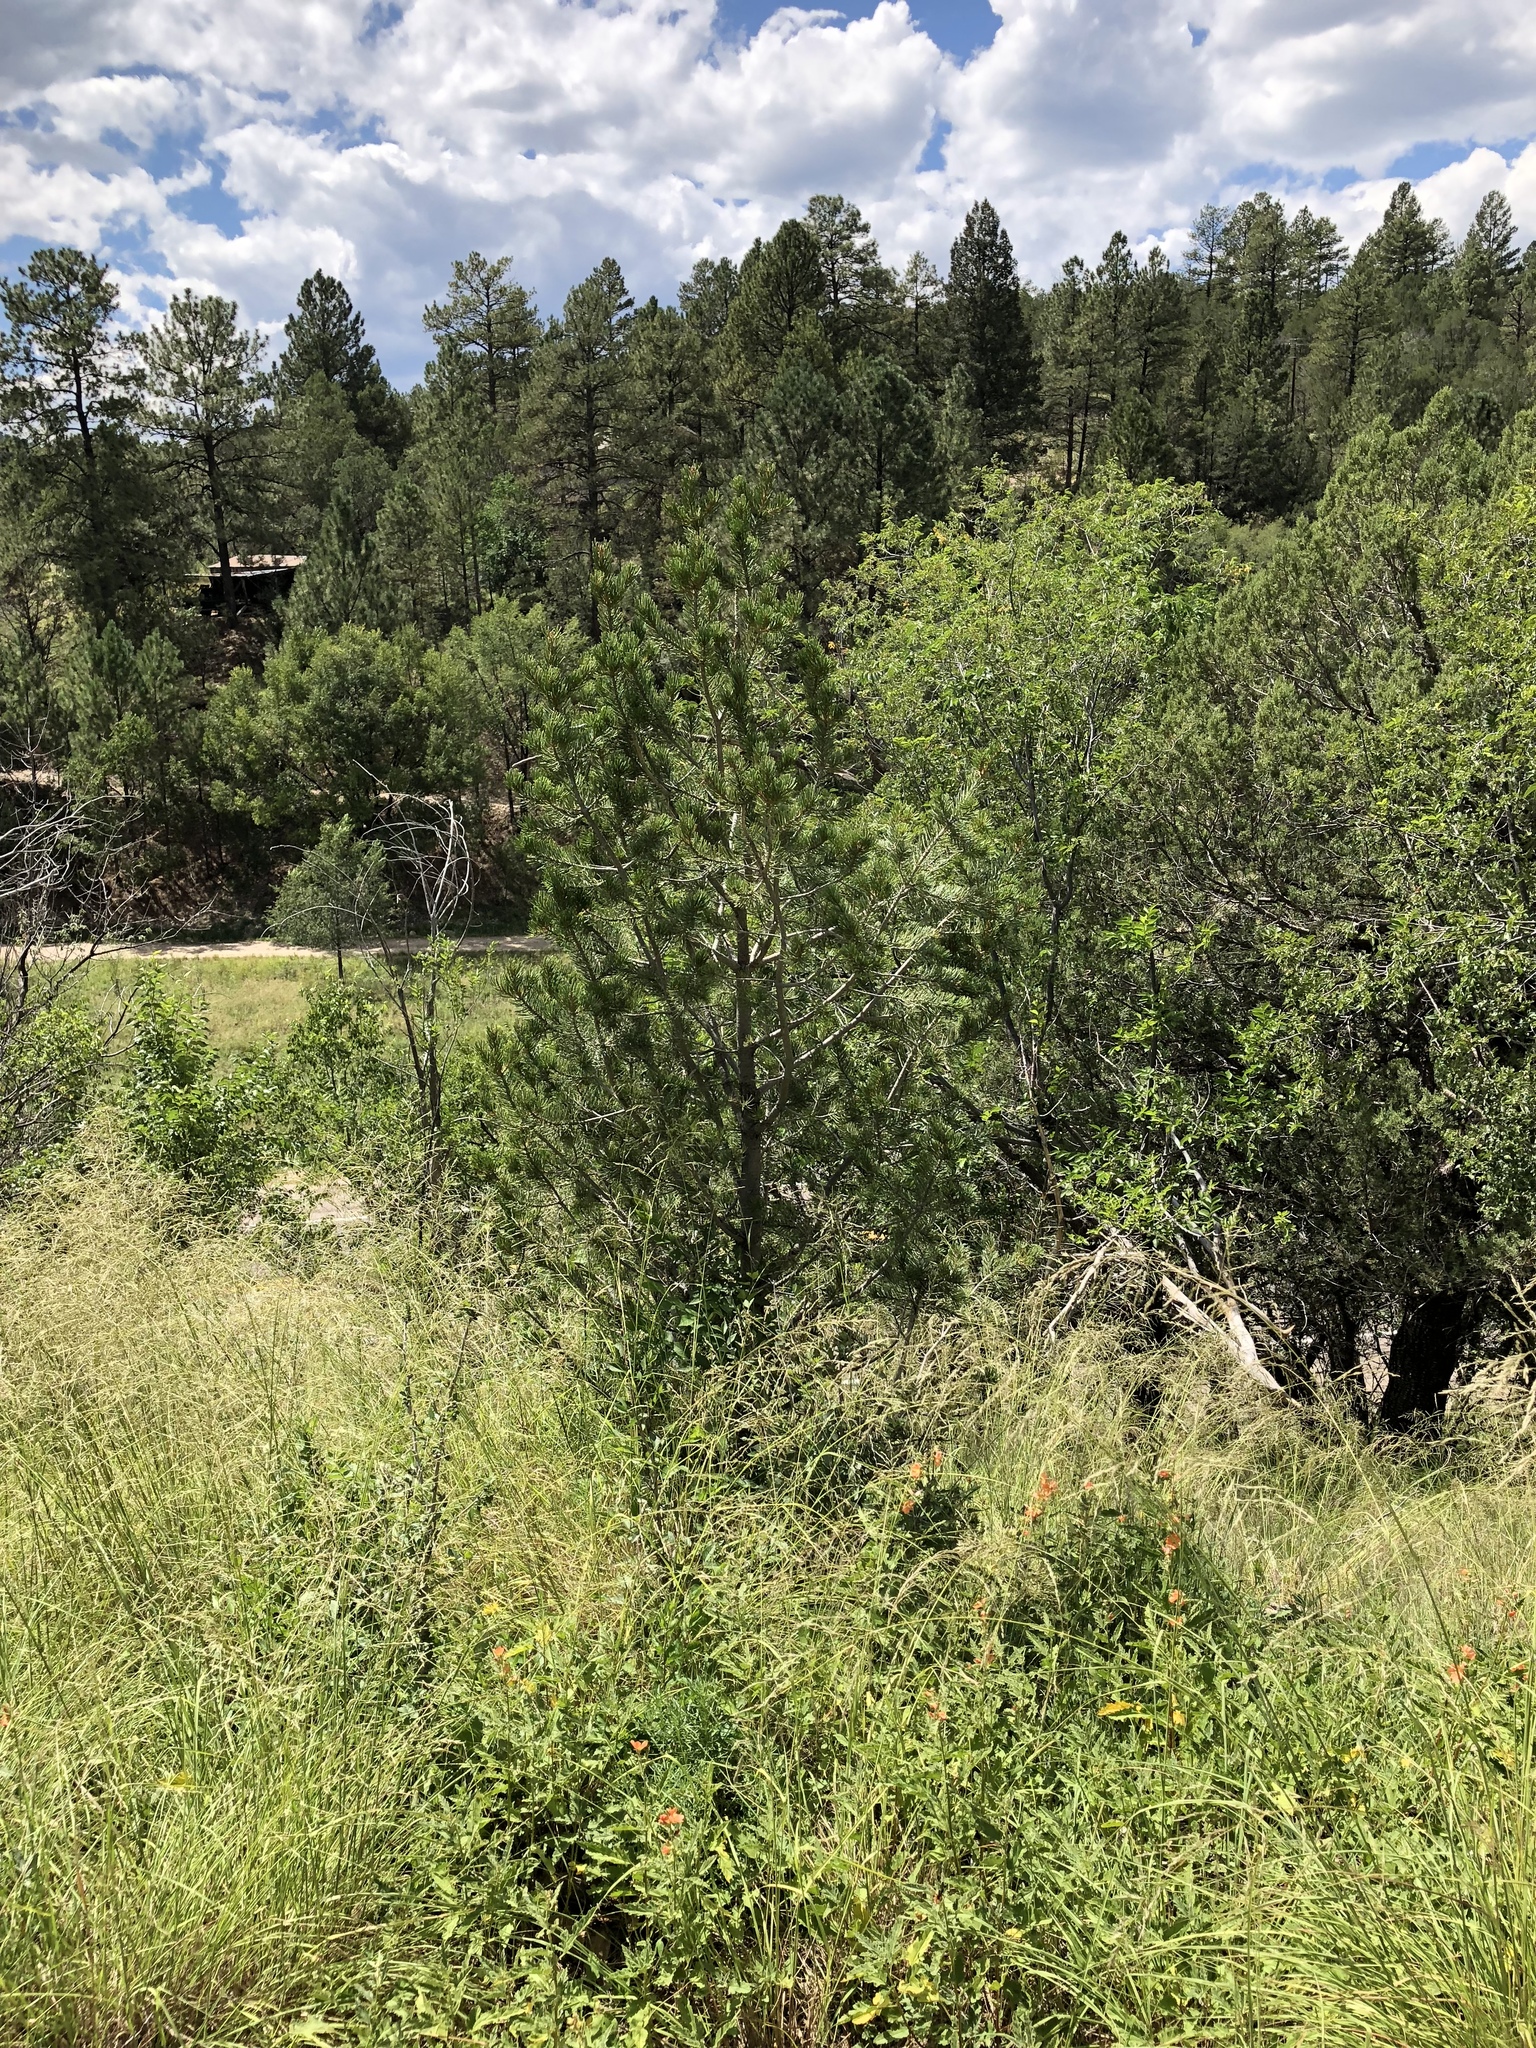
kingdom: Plantae
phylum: Tracheophyta
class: Pinopsida
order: Pinales
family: Pinaceae
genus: Pinus
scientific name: Pinus edulis
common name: Colorado pinyon
